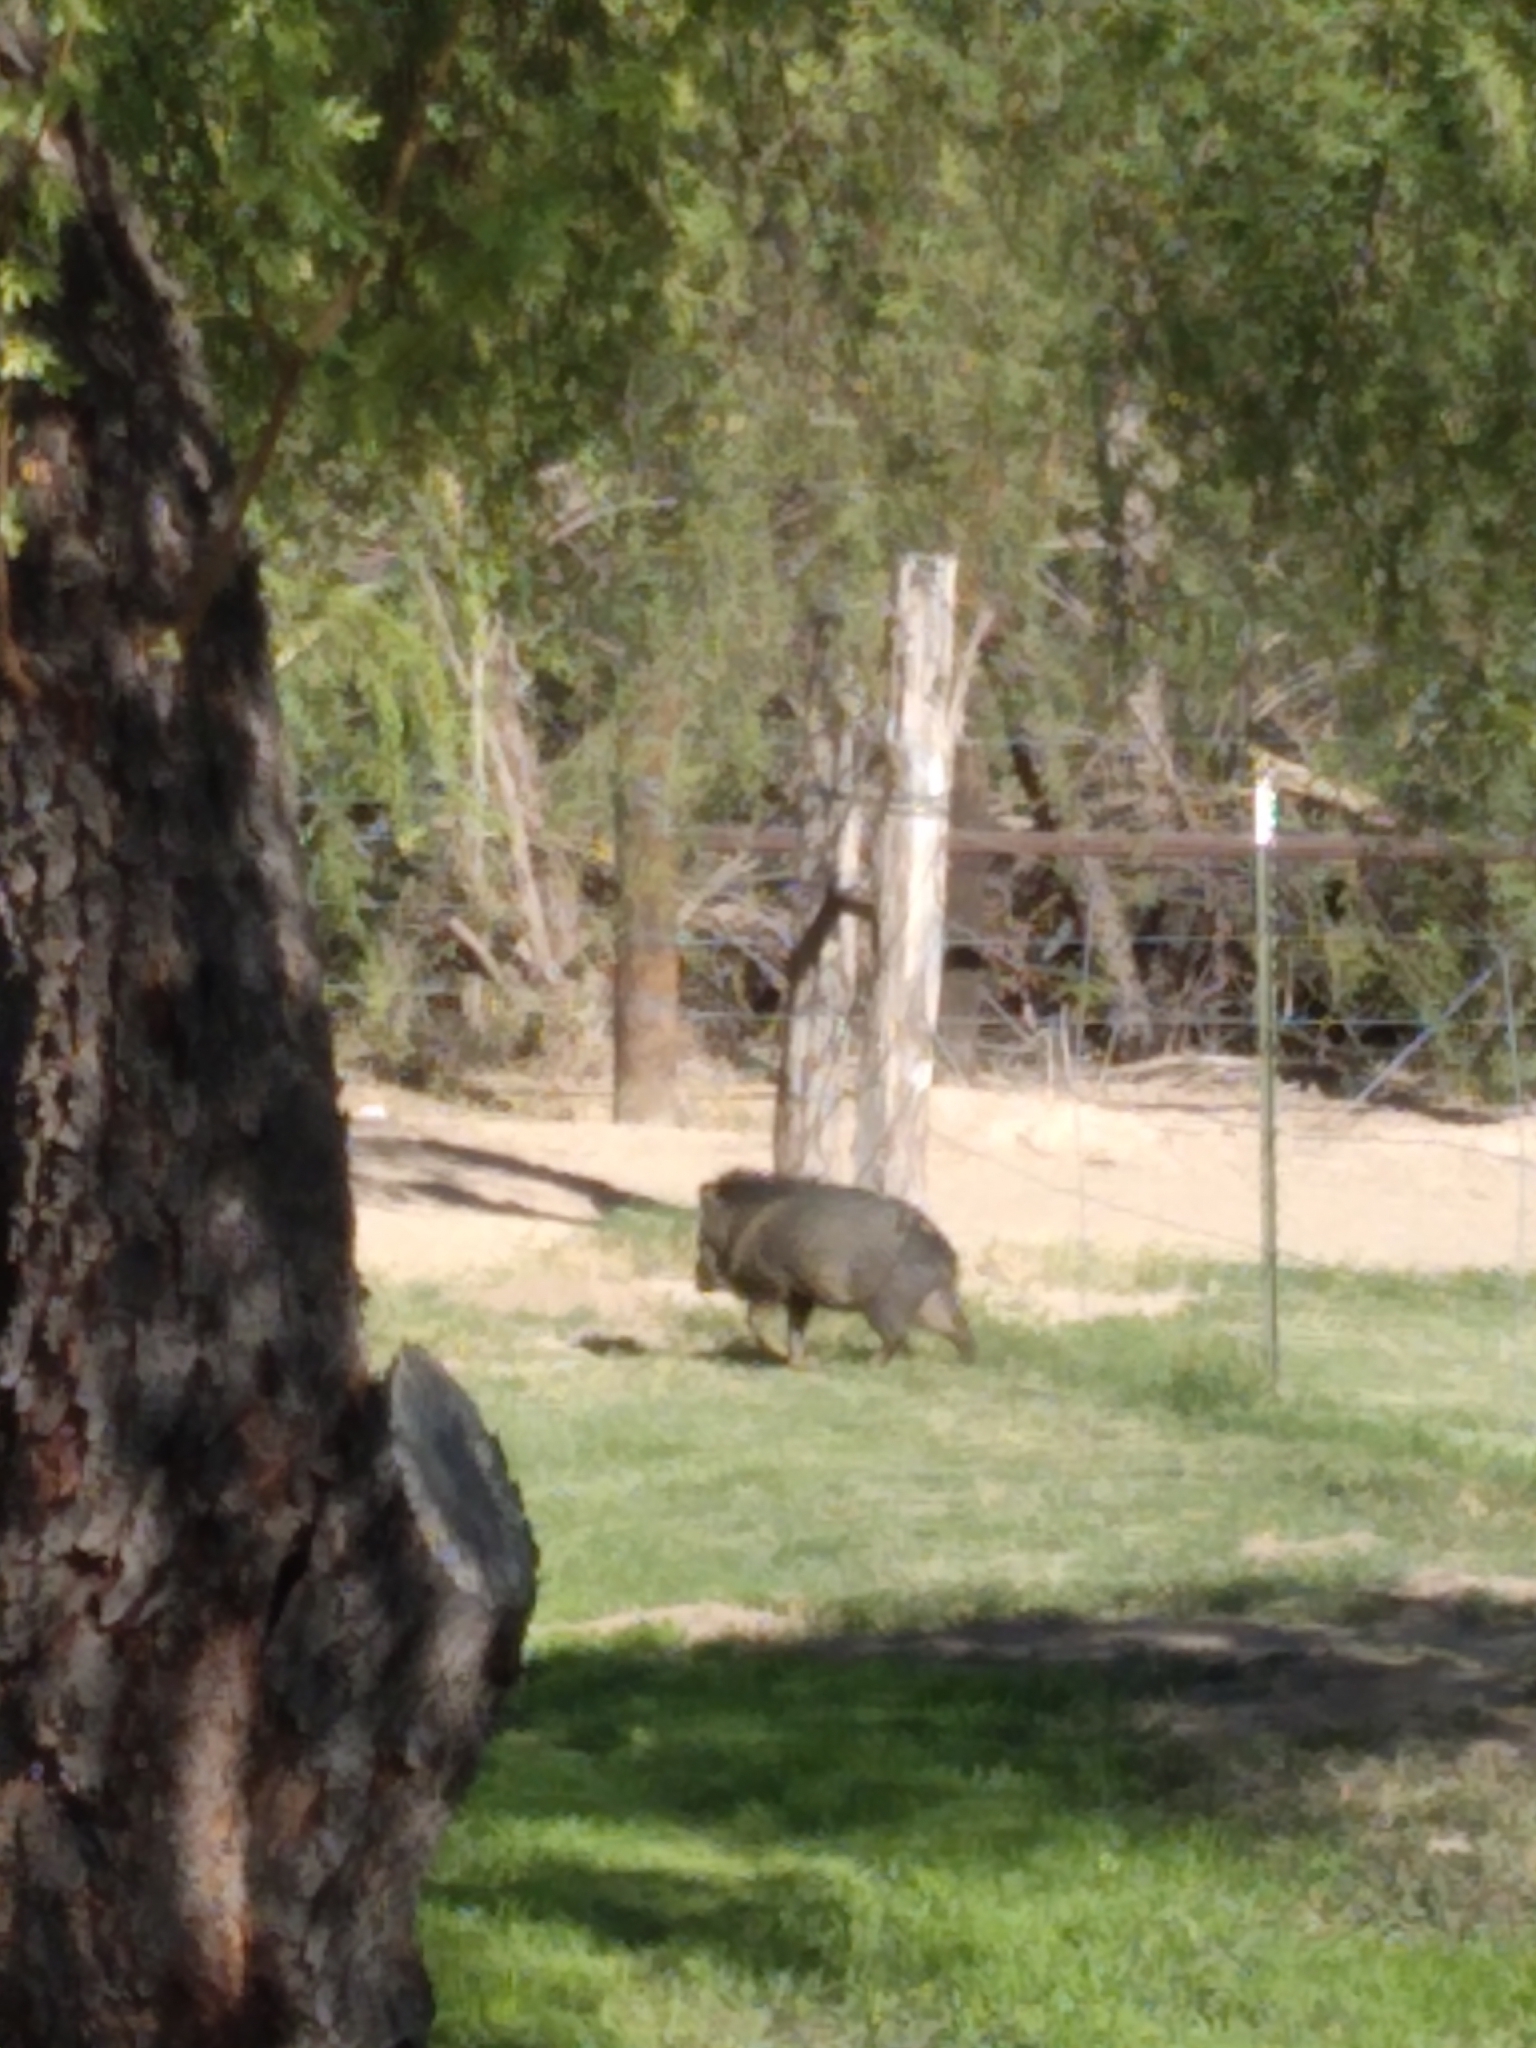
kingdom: Animalia
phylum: Chordata
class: Mammalia
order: Artiodactyla
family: Tayassuidae
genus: Pecari
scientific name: Pecari tajacu
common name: Collared peccary
